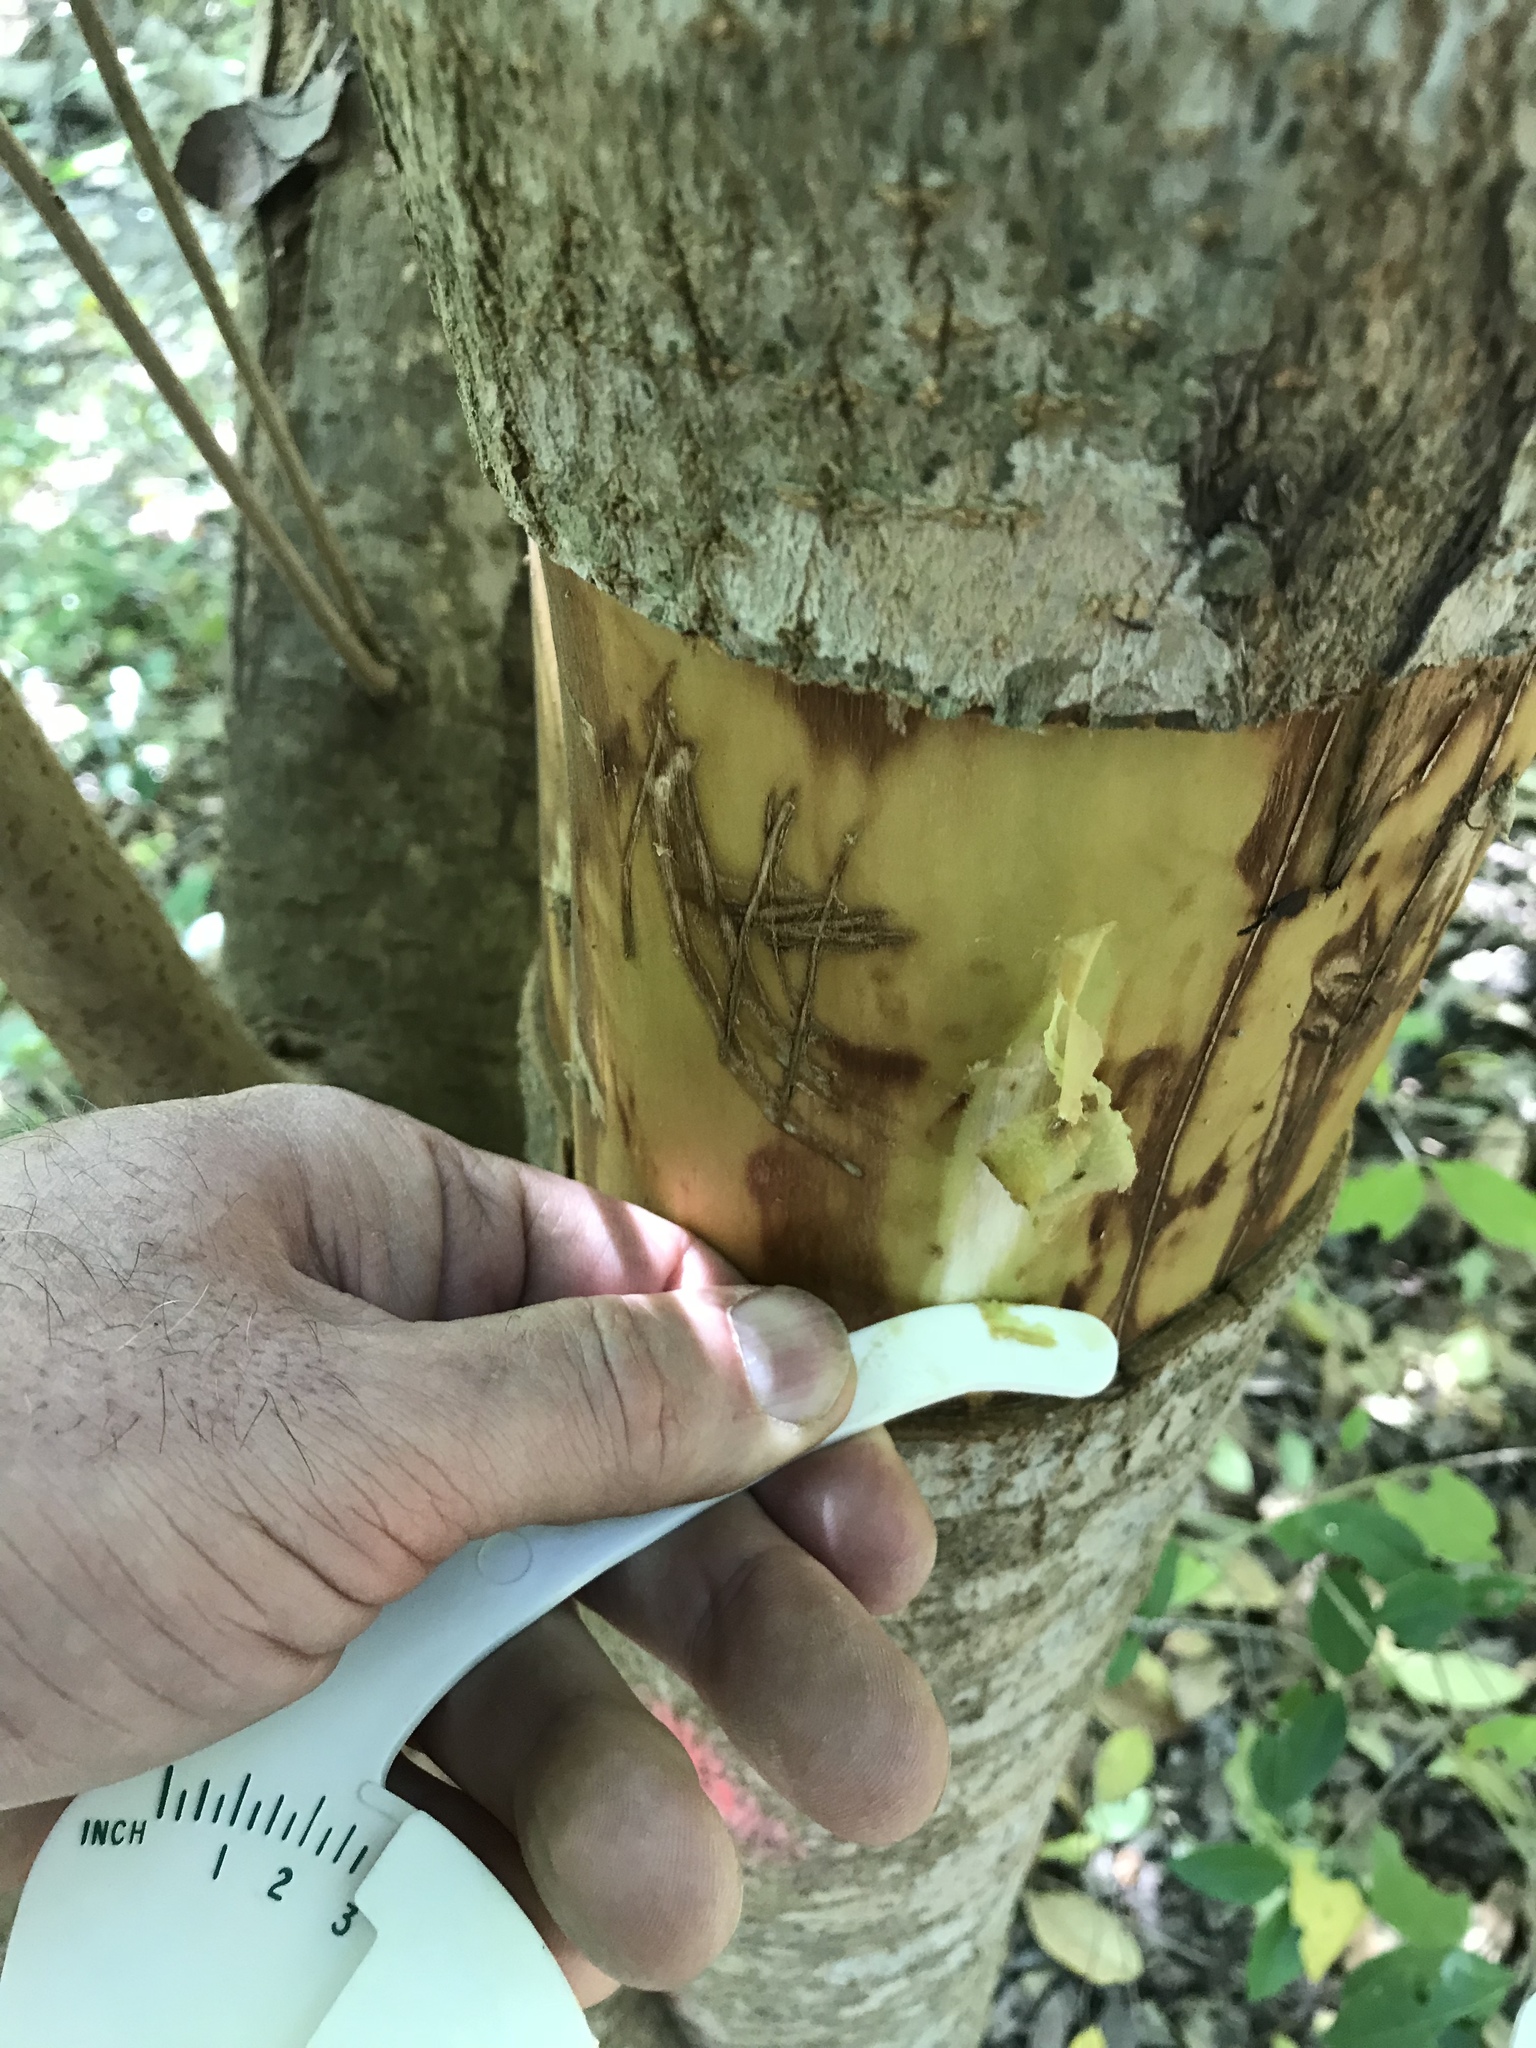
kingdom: Plantae
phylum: Tracheophyta
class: Magnoliopsida
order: Lamiales
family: Oleaceae
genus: Ligustrum
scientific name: Ligustrum lucidum
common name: Glossy privet
